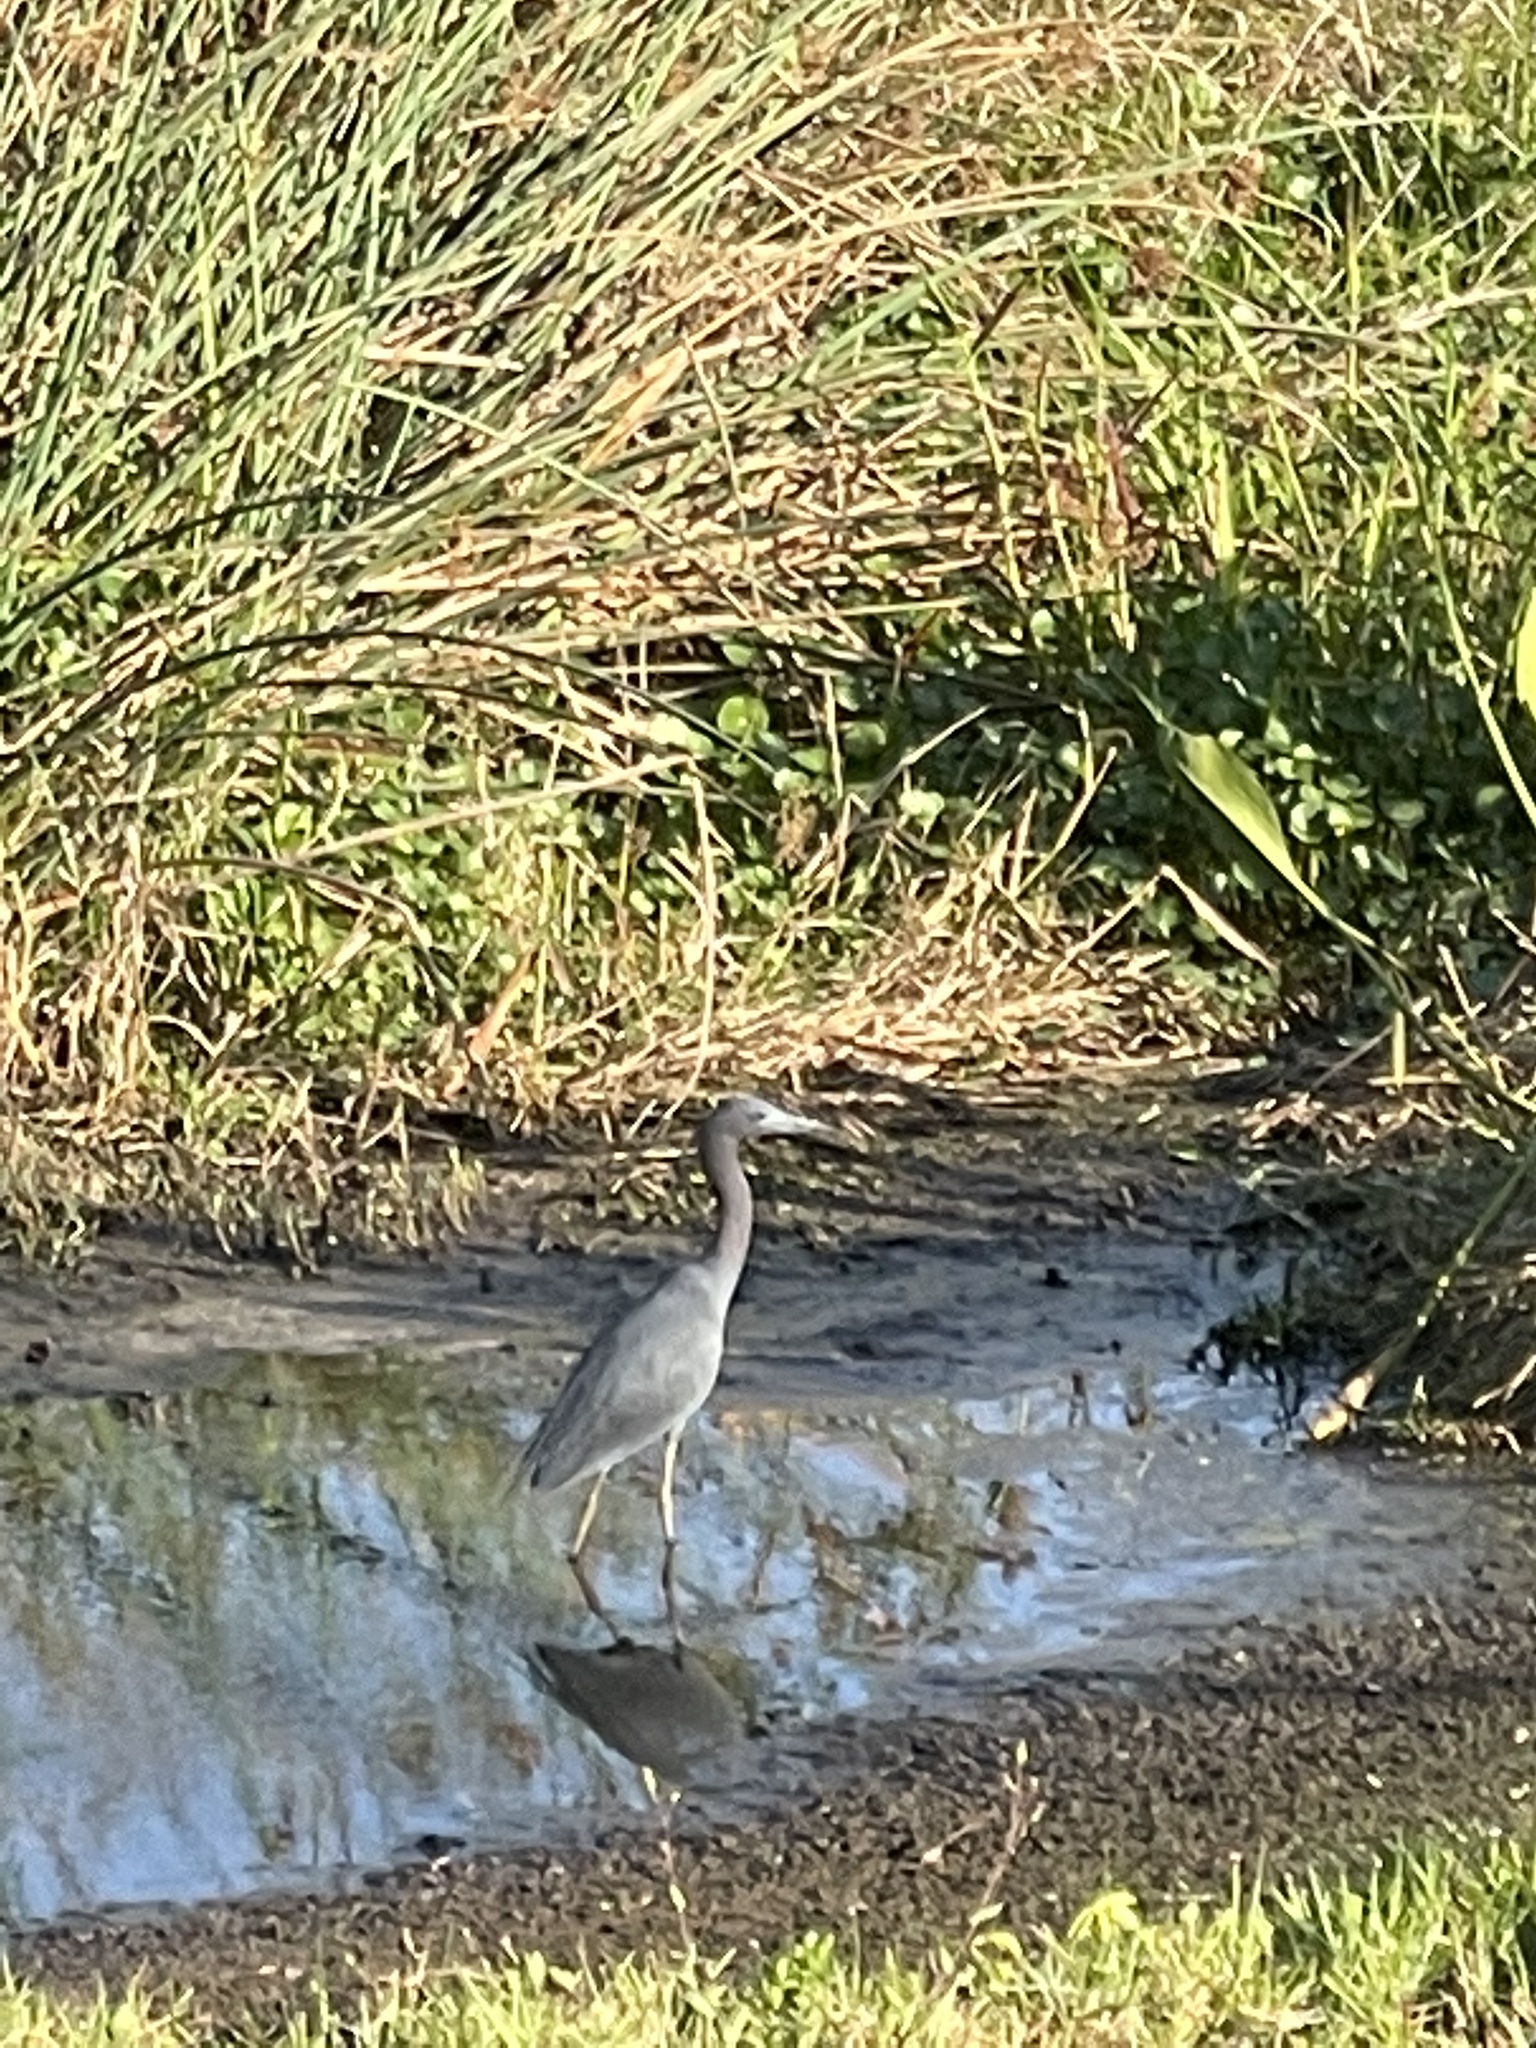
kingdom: Animalia
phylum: Chordata
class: Aves
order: Pelecaniformes
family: Ardeidae
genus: Egretta
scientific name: Egretta caerulea
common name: Little blue heron
